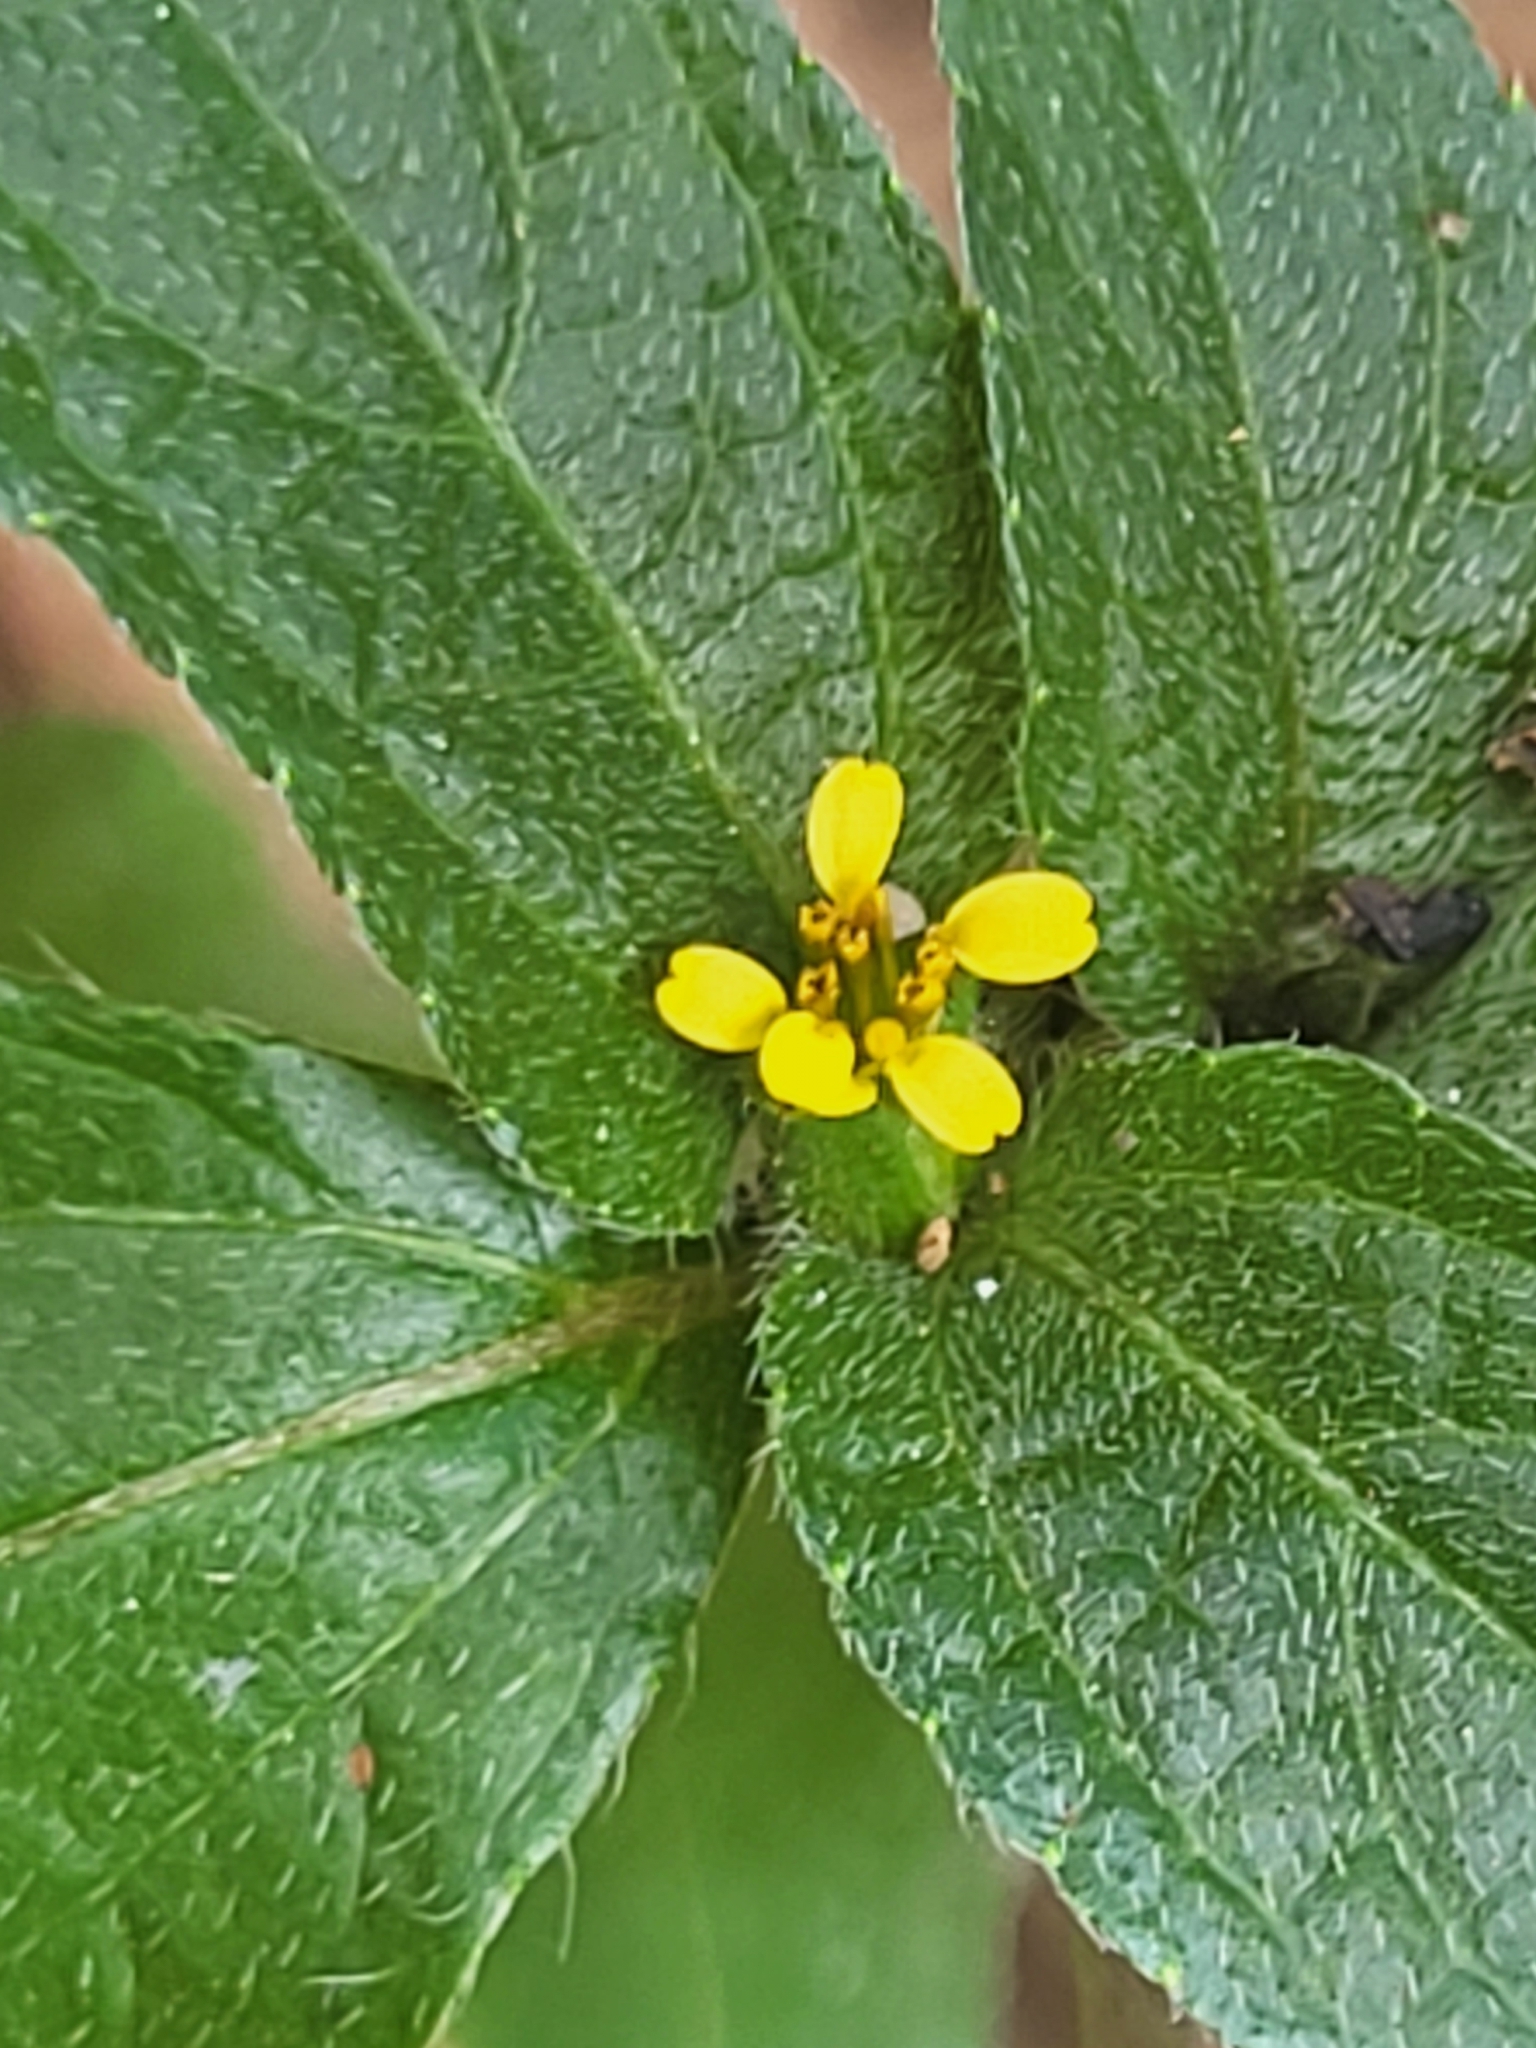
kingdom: Plantae
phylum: Tracheophyta
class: Magnoliopsida
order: Asterales
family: Asteraceae
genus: Synedrella
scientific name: Synedrella nodiflora
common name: Nodeweed
